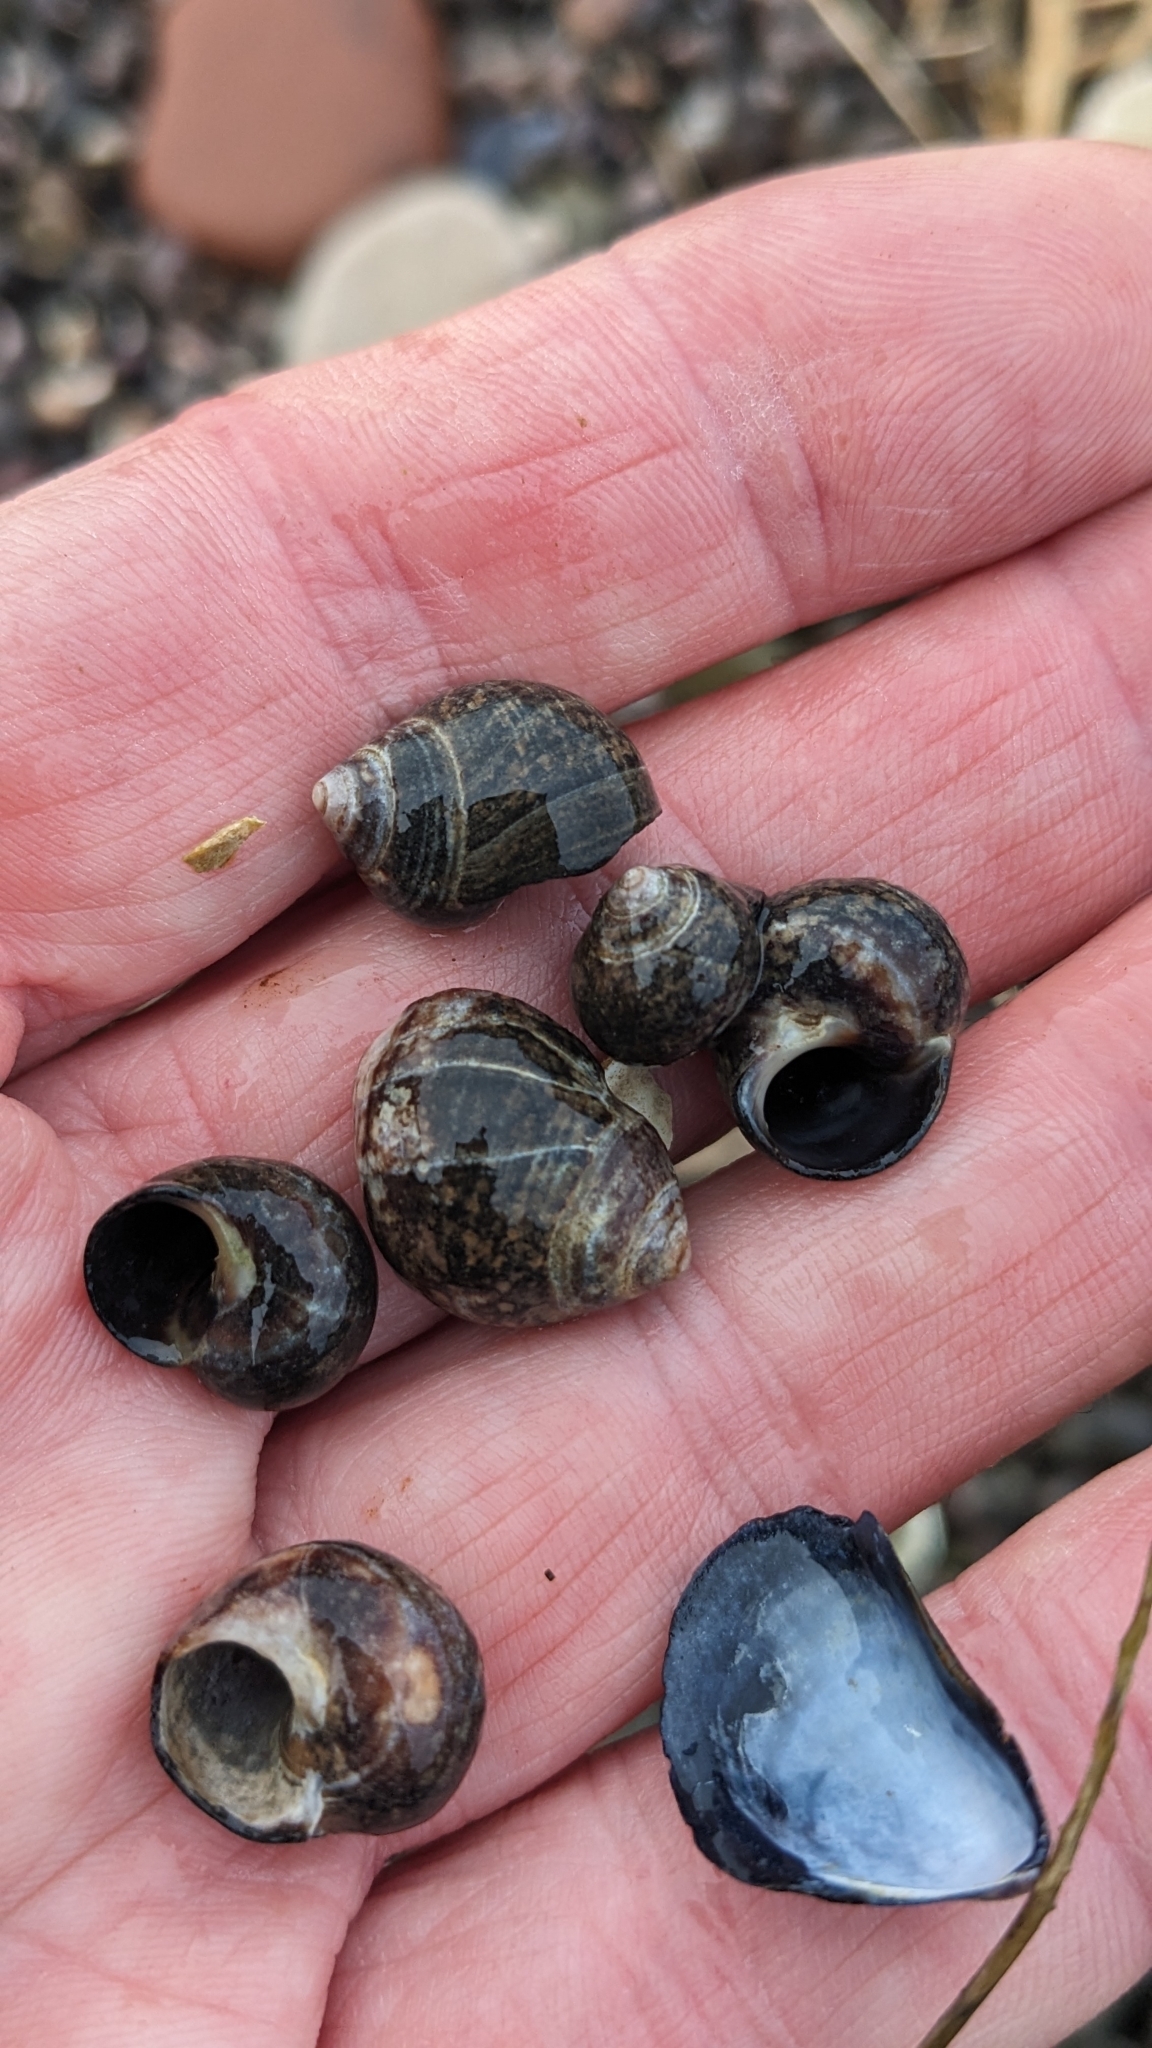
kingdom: Animalia
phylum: Mollusca
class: Gastropoda
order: Littorinimorpha
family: Littorinidae
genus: Littorina
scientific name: Littorina littorea
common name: Common periwinkle
